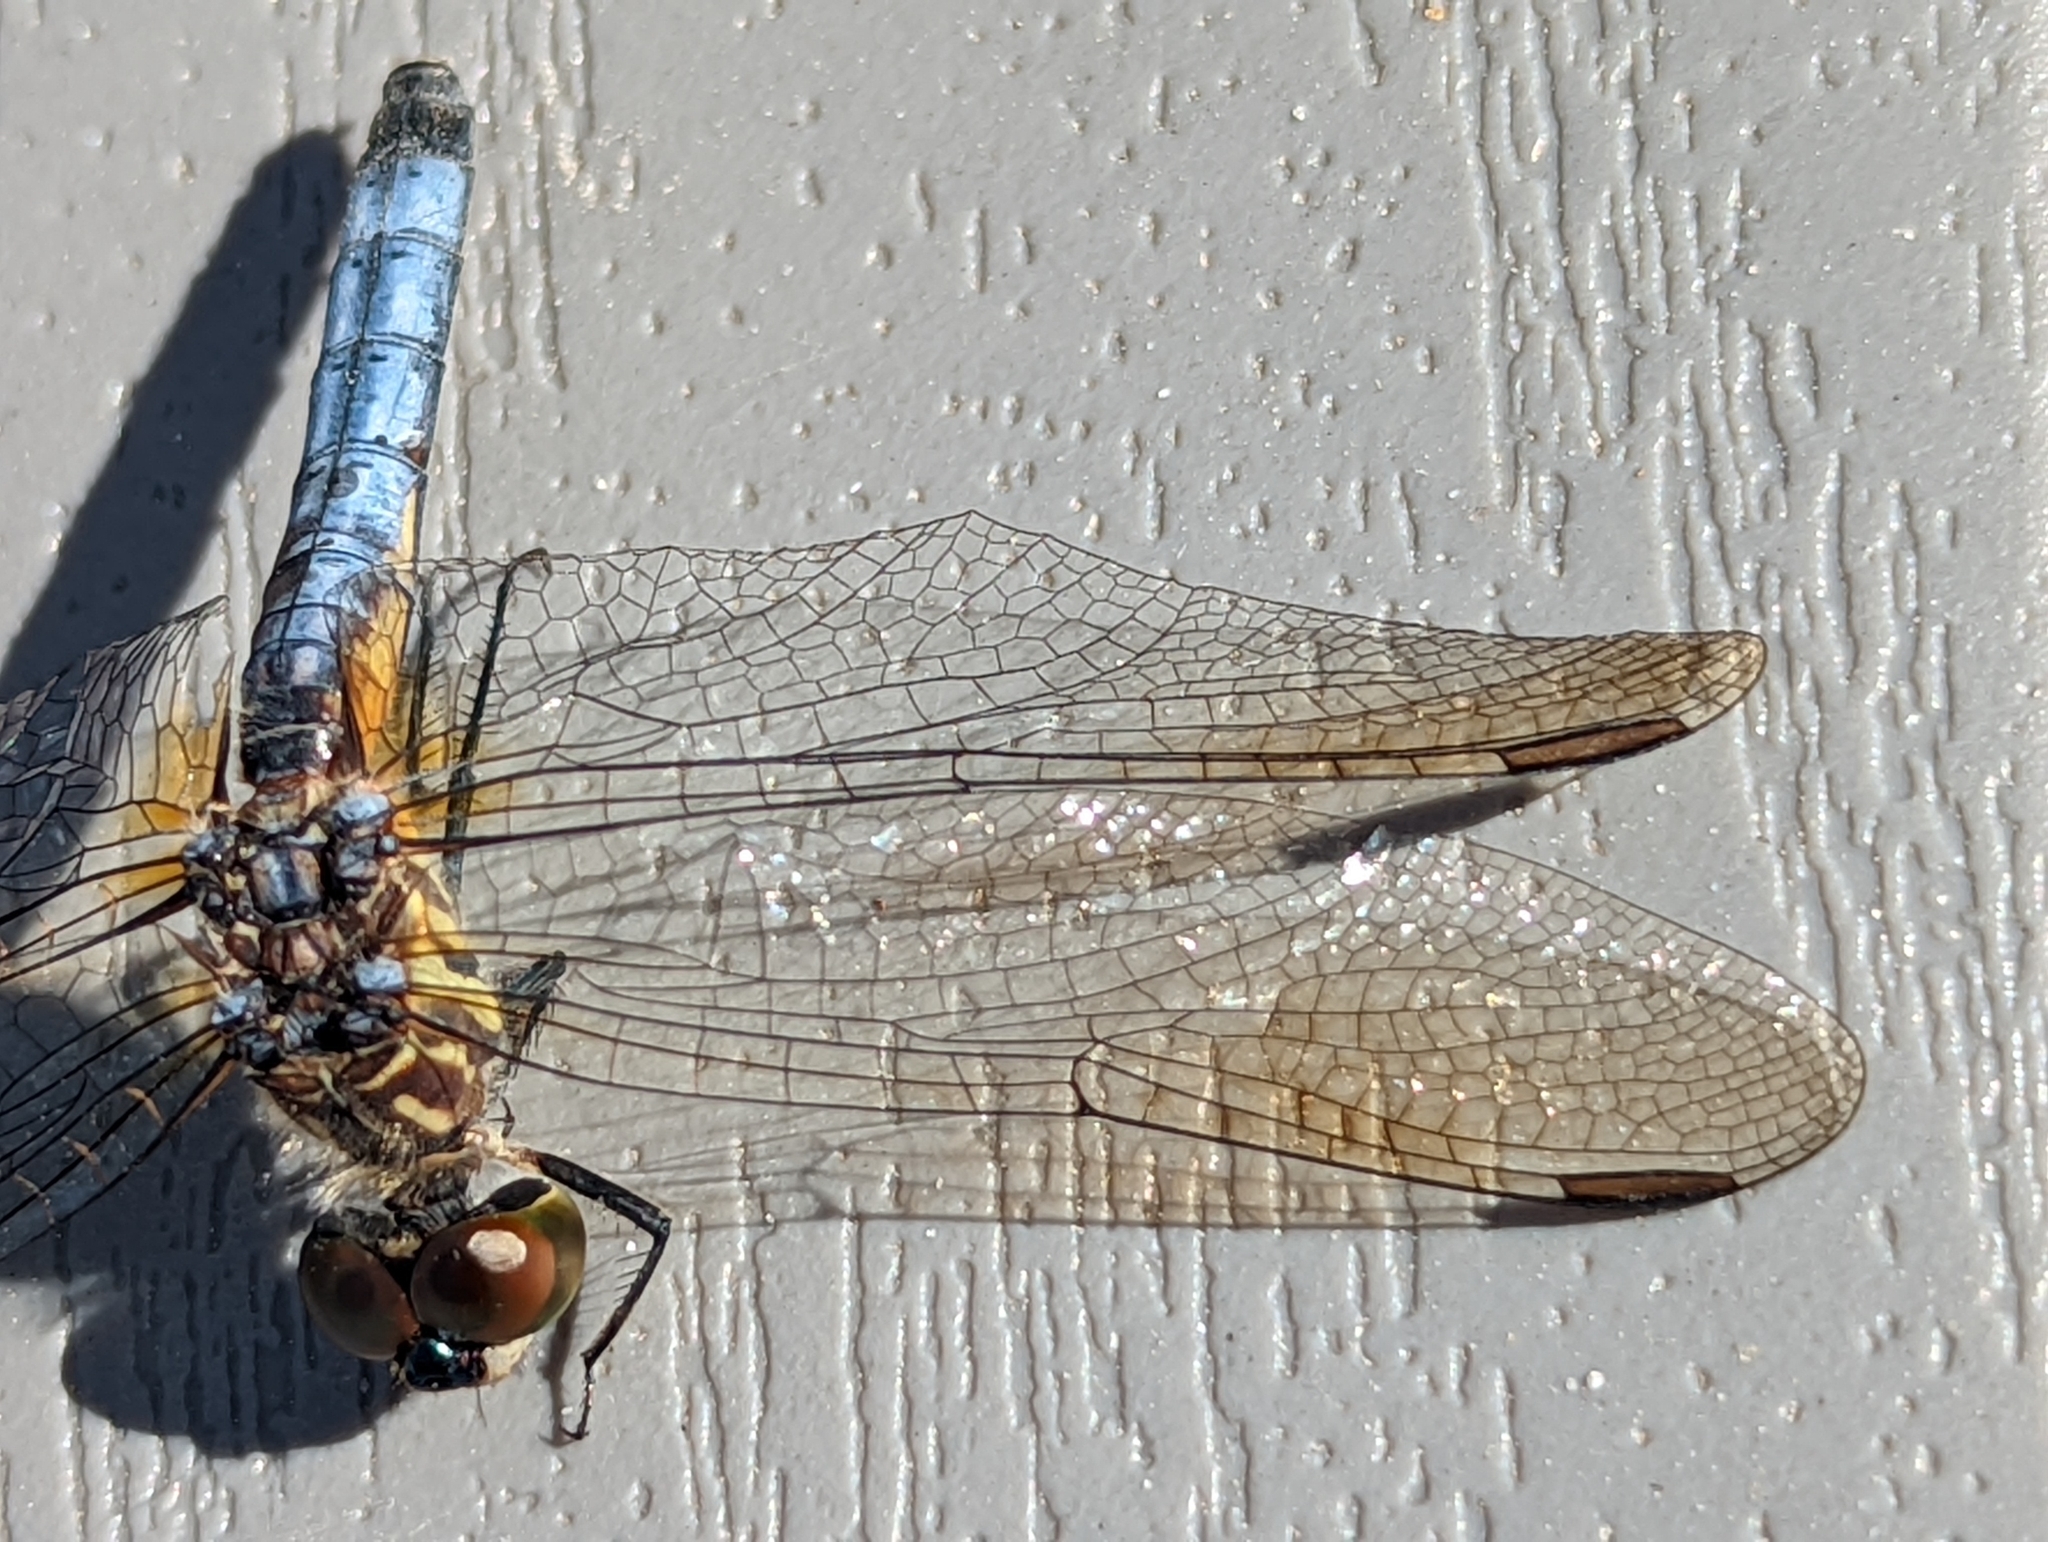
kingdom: Animalia
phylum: Arthropoda
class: Insecta
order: Odonata
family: Libellulidae
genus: Pachydiplax
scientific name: Pachydiplax longipennis
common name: Blue dasher
